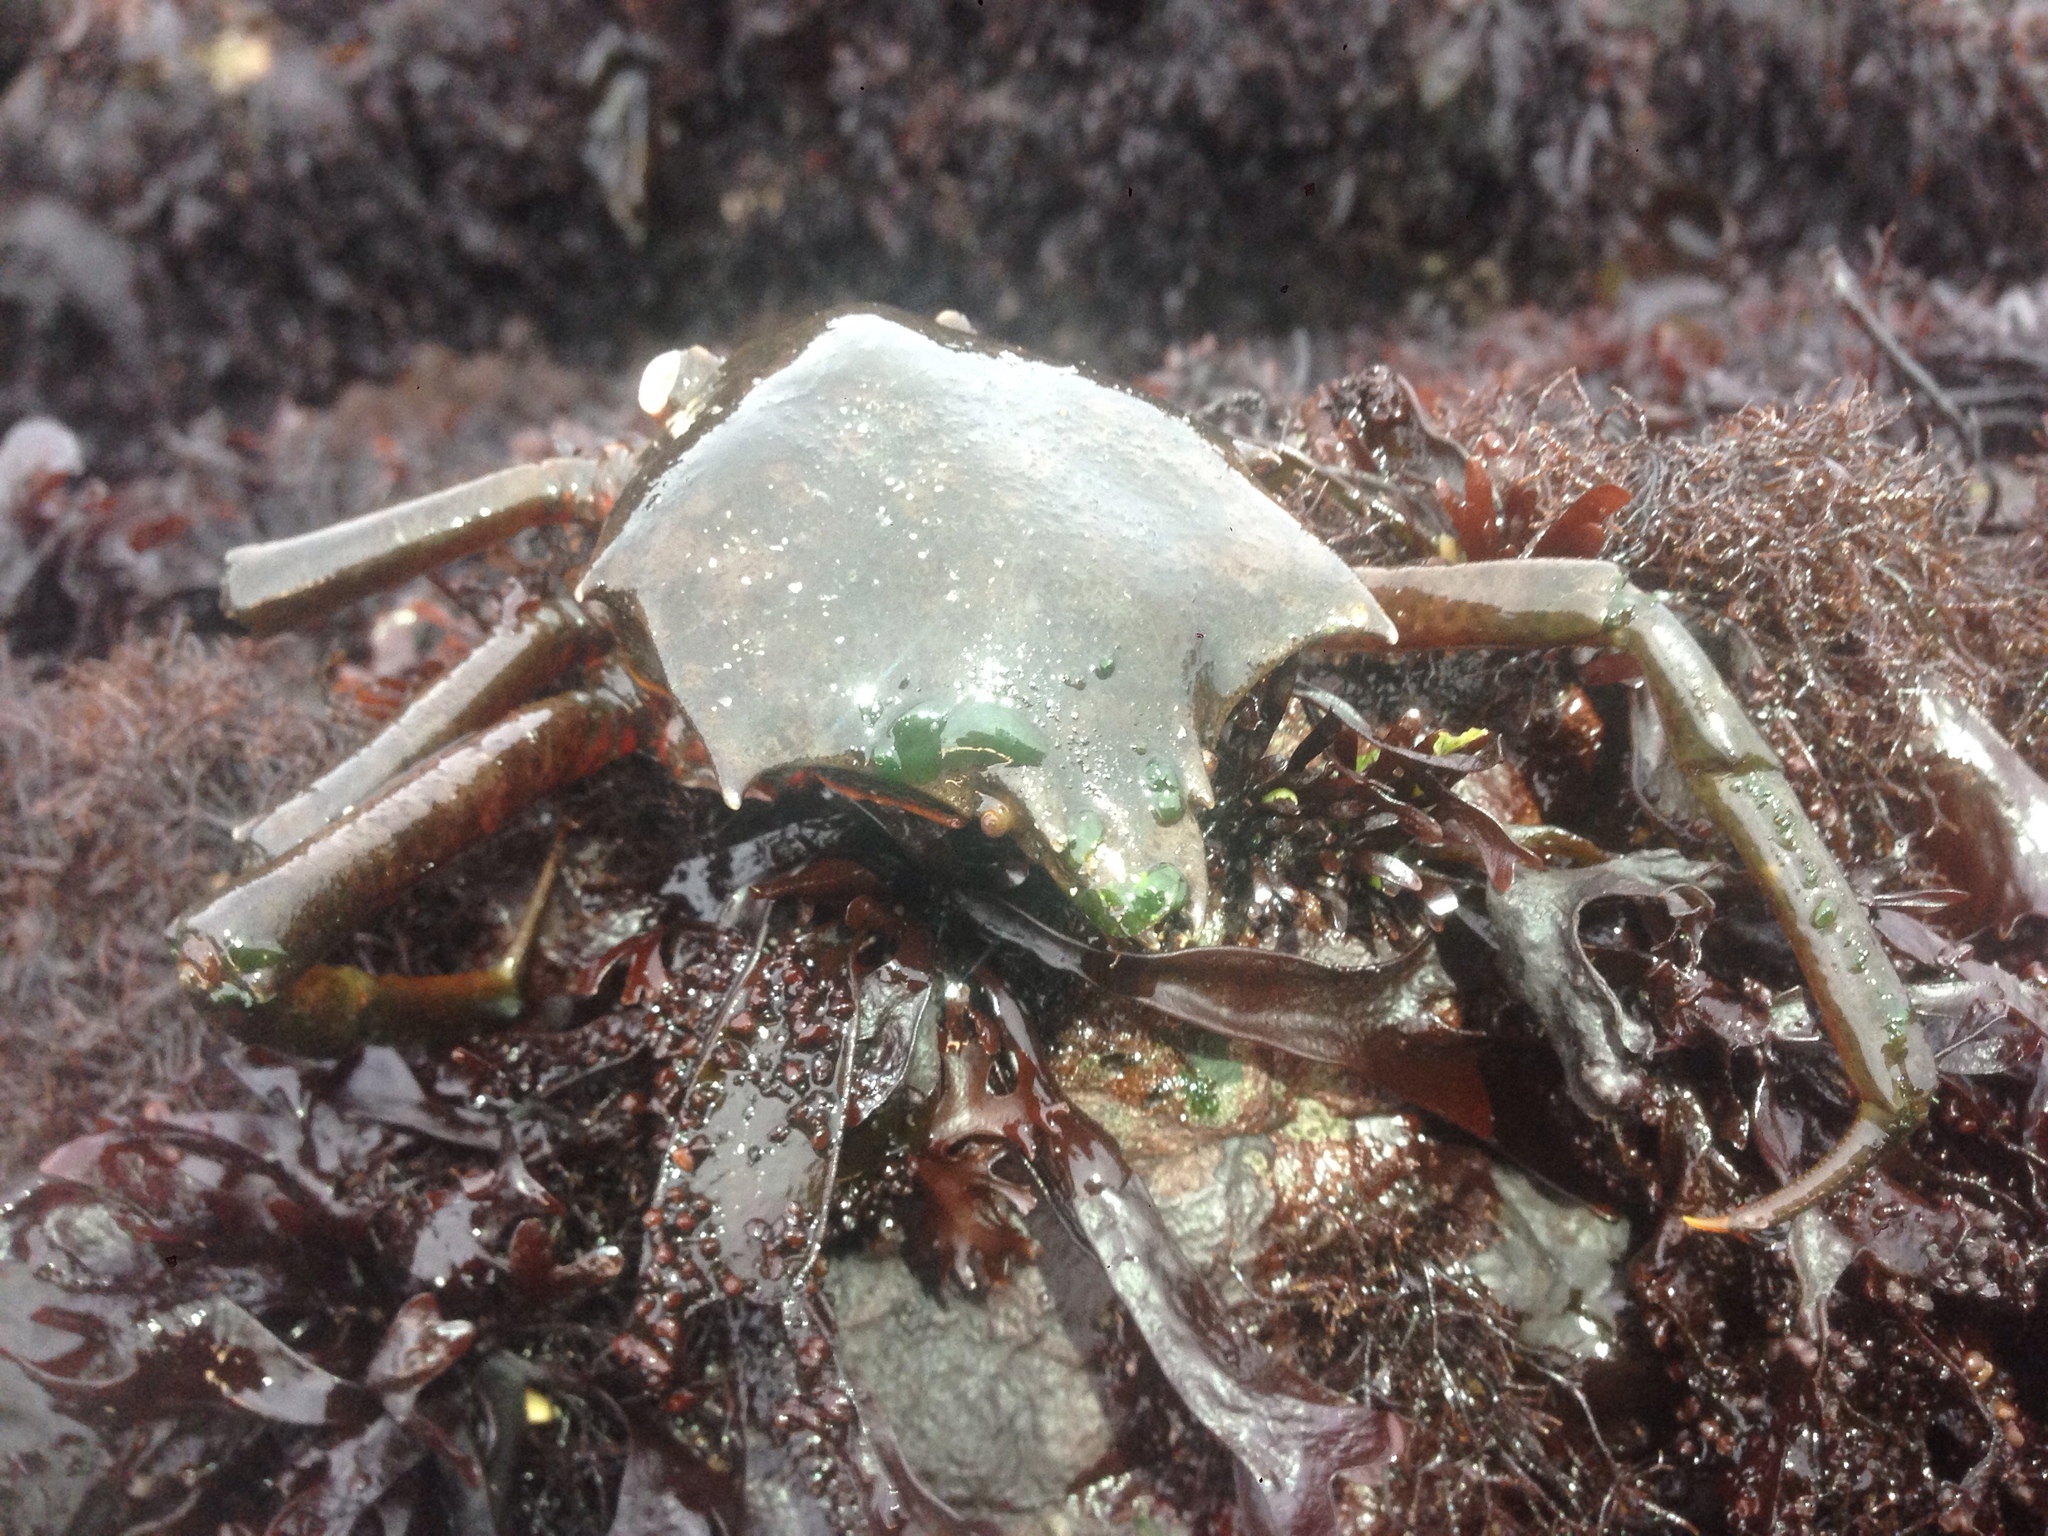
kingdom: Animalia
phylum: Arthropoda
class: Malacostraca
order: Decapoda
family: Epialtidae
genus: Pugettia
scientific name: Pugettia producta
